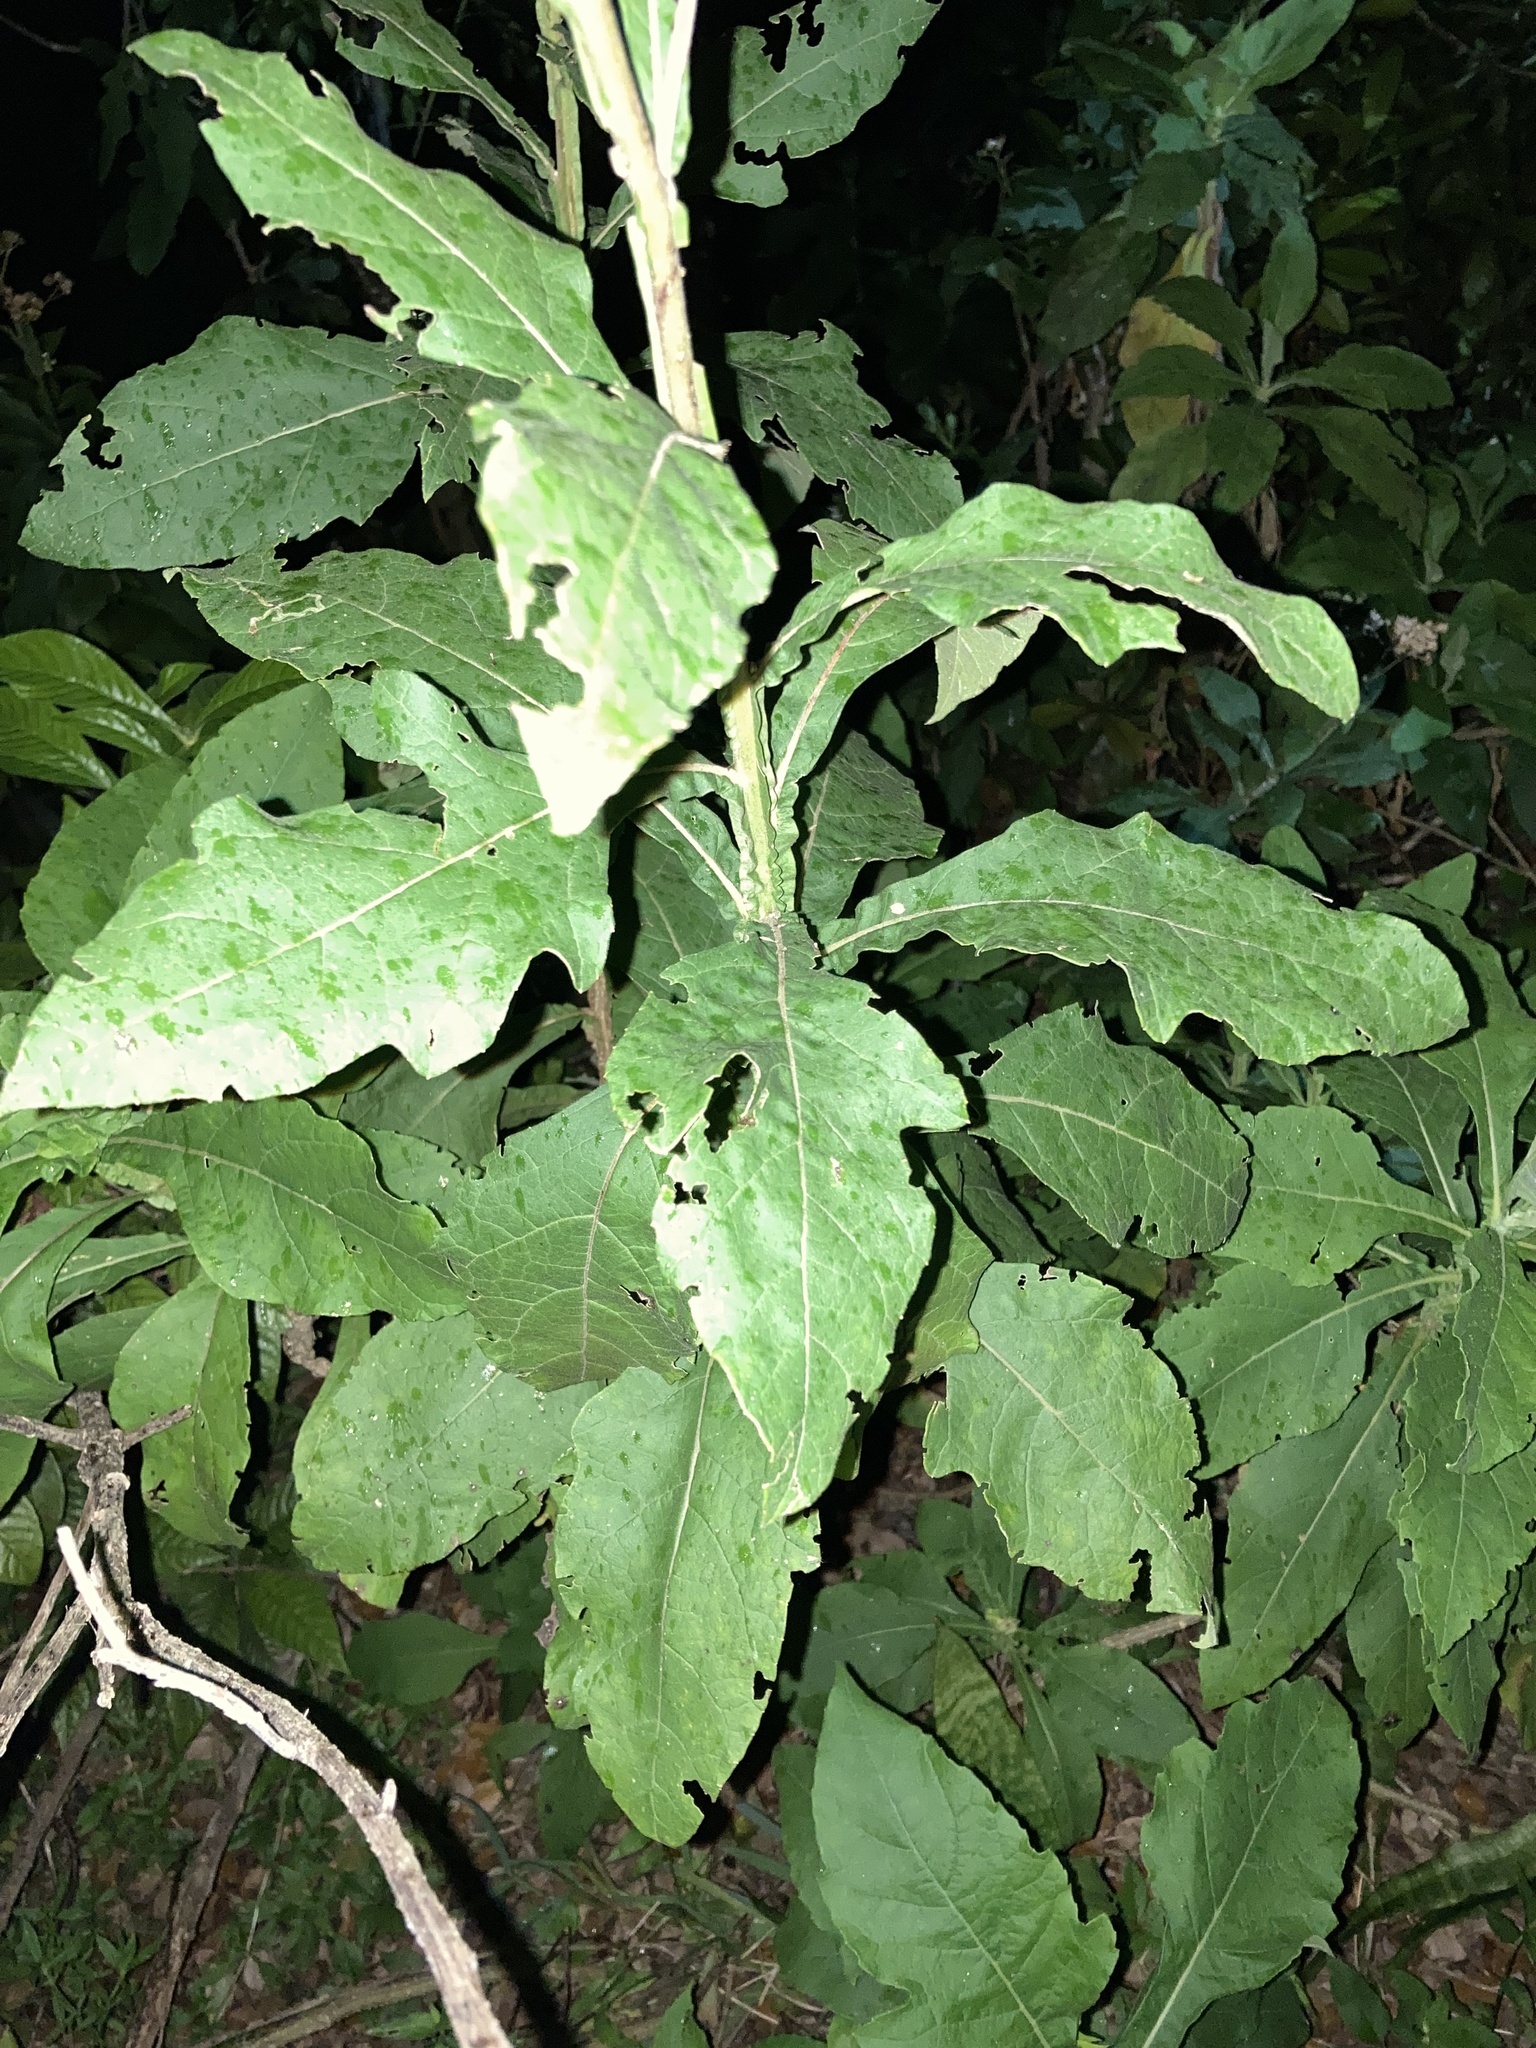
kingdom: Plantae
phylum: Tracheophyta
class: Magnoliopsida
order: Asterales
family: Asteraceae
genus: Verbesina
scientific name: Verbesina virginica
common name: Frostweed
